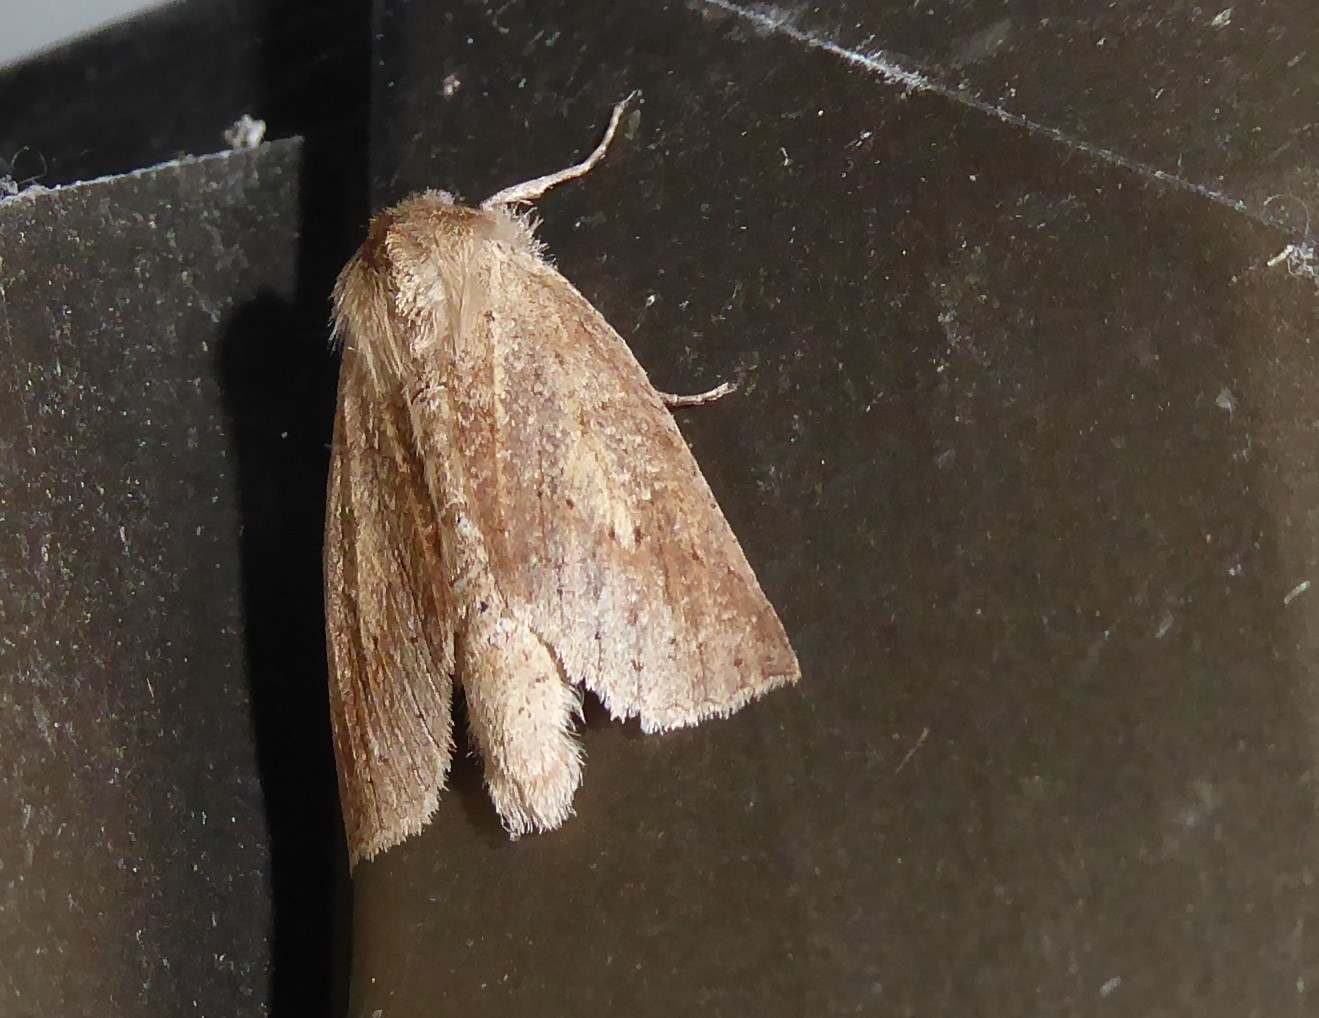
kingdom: Animalia
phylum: Arthropoda
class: Insecta
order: Lepidoptera
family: Geometridae
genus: Declana
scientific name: Declana leptomera
